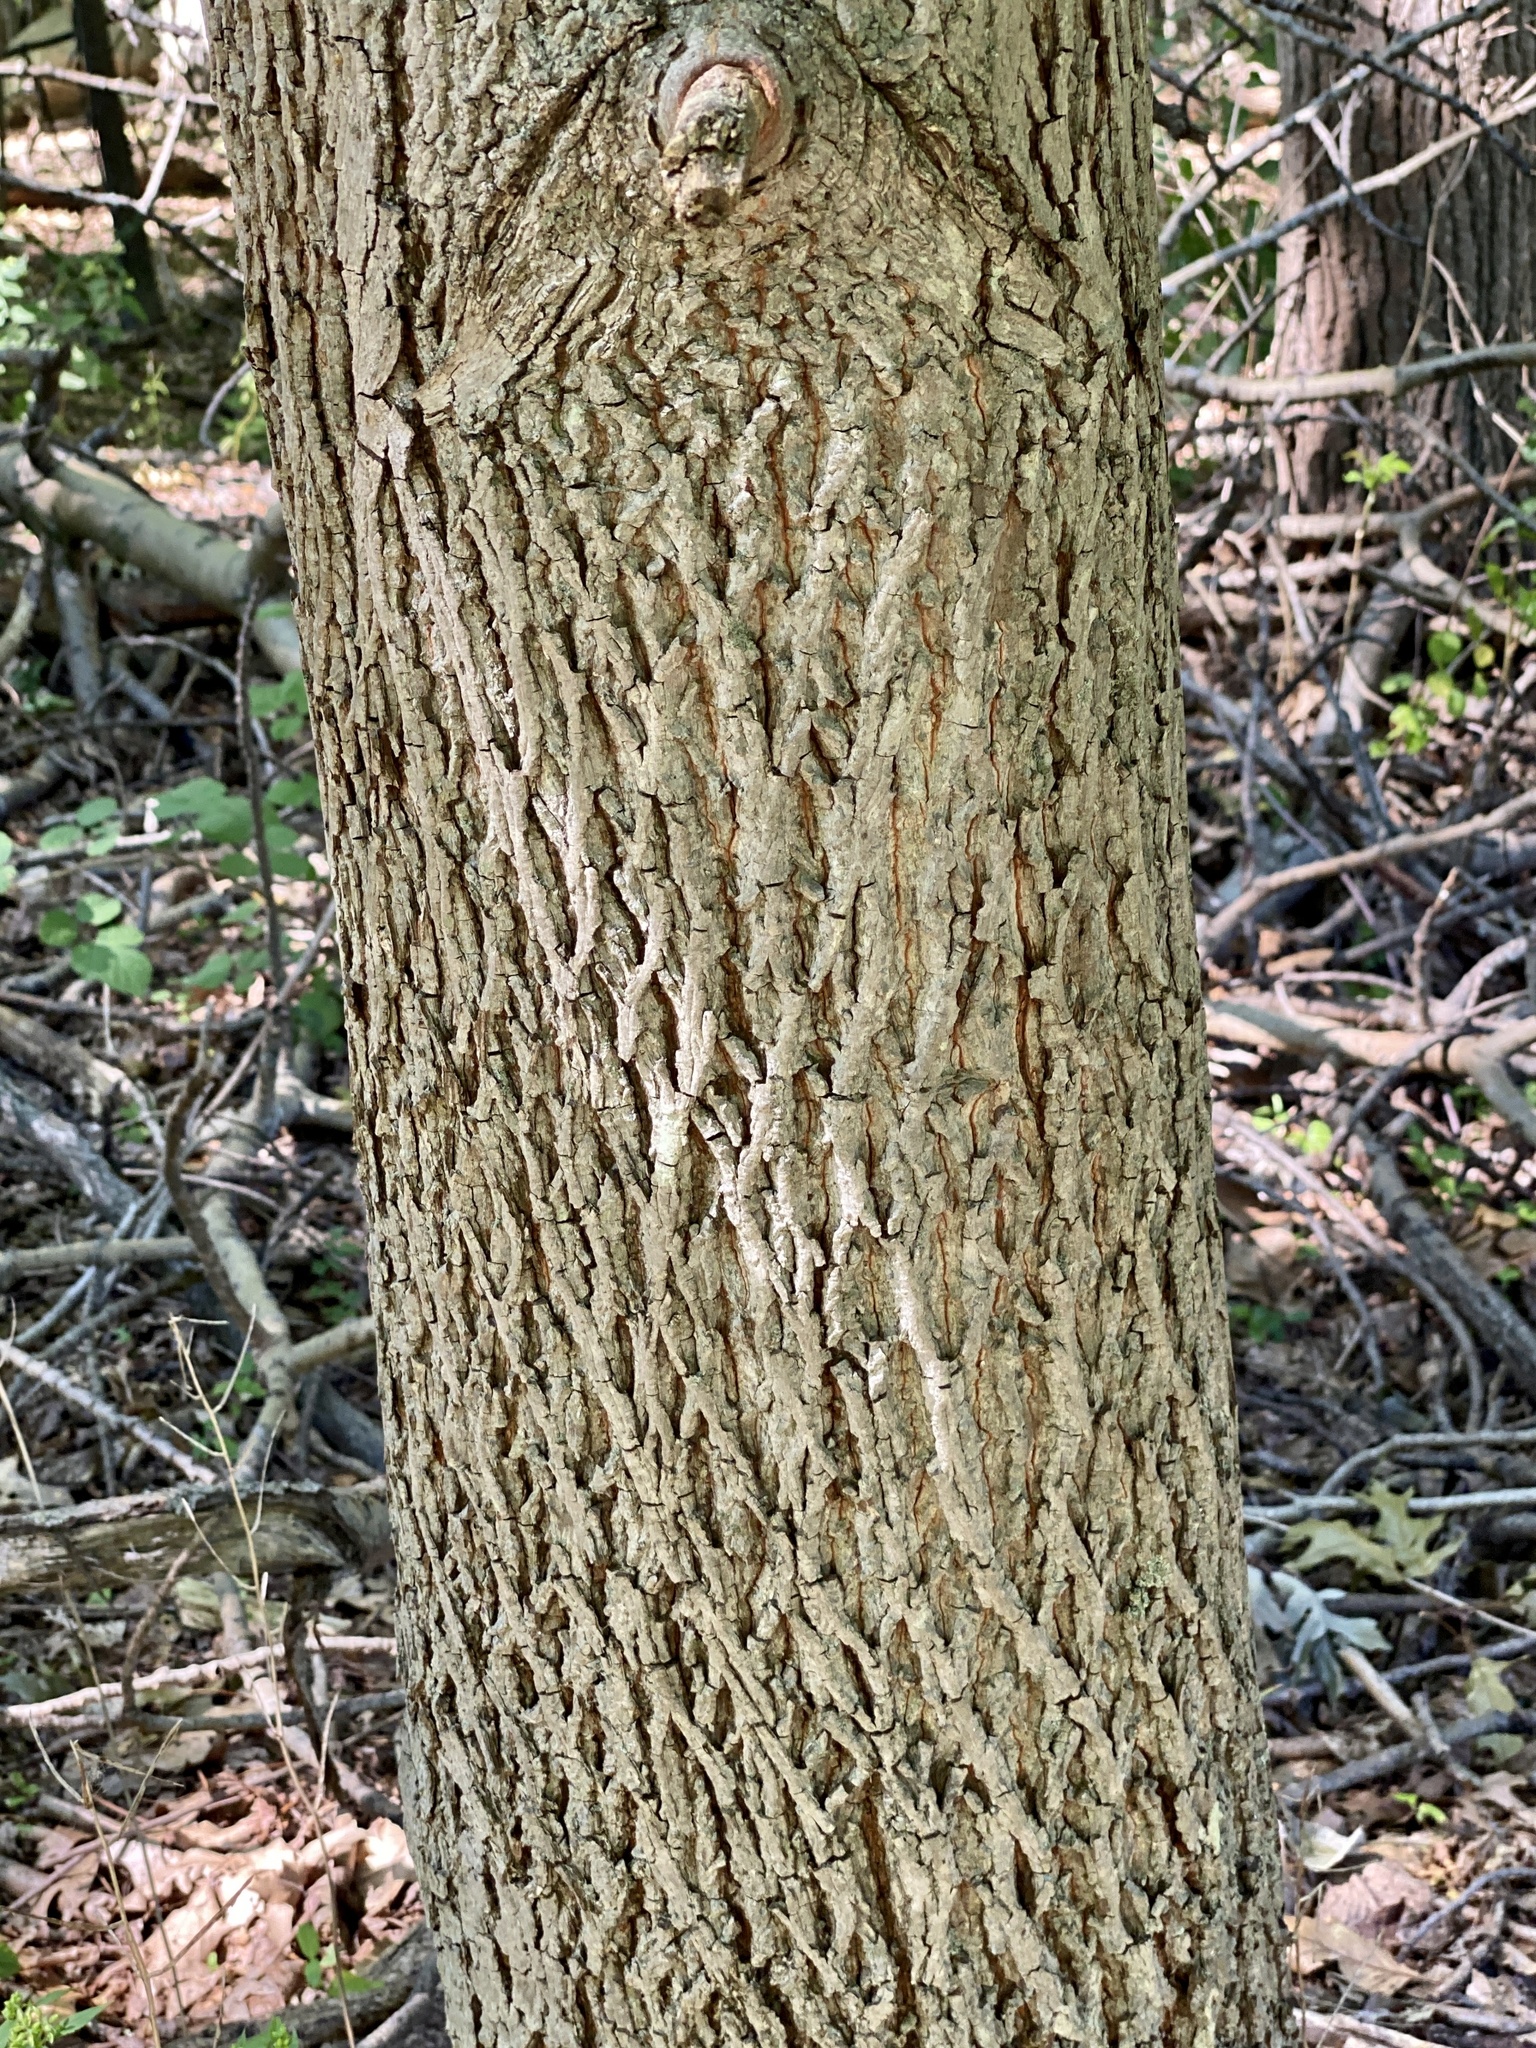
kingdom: Plantae
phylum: Tracheophyta
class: Magnoliopsida
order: Fagales
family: Juglandaceae
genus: Carya
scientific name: Carya alba
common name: Mockernut hickory
